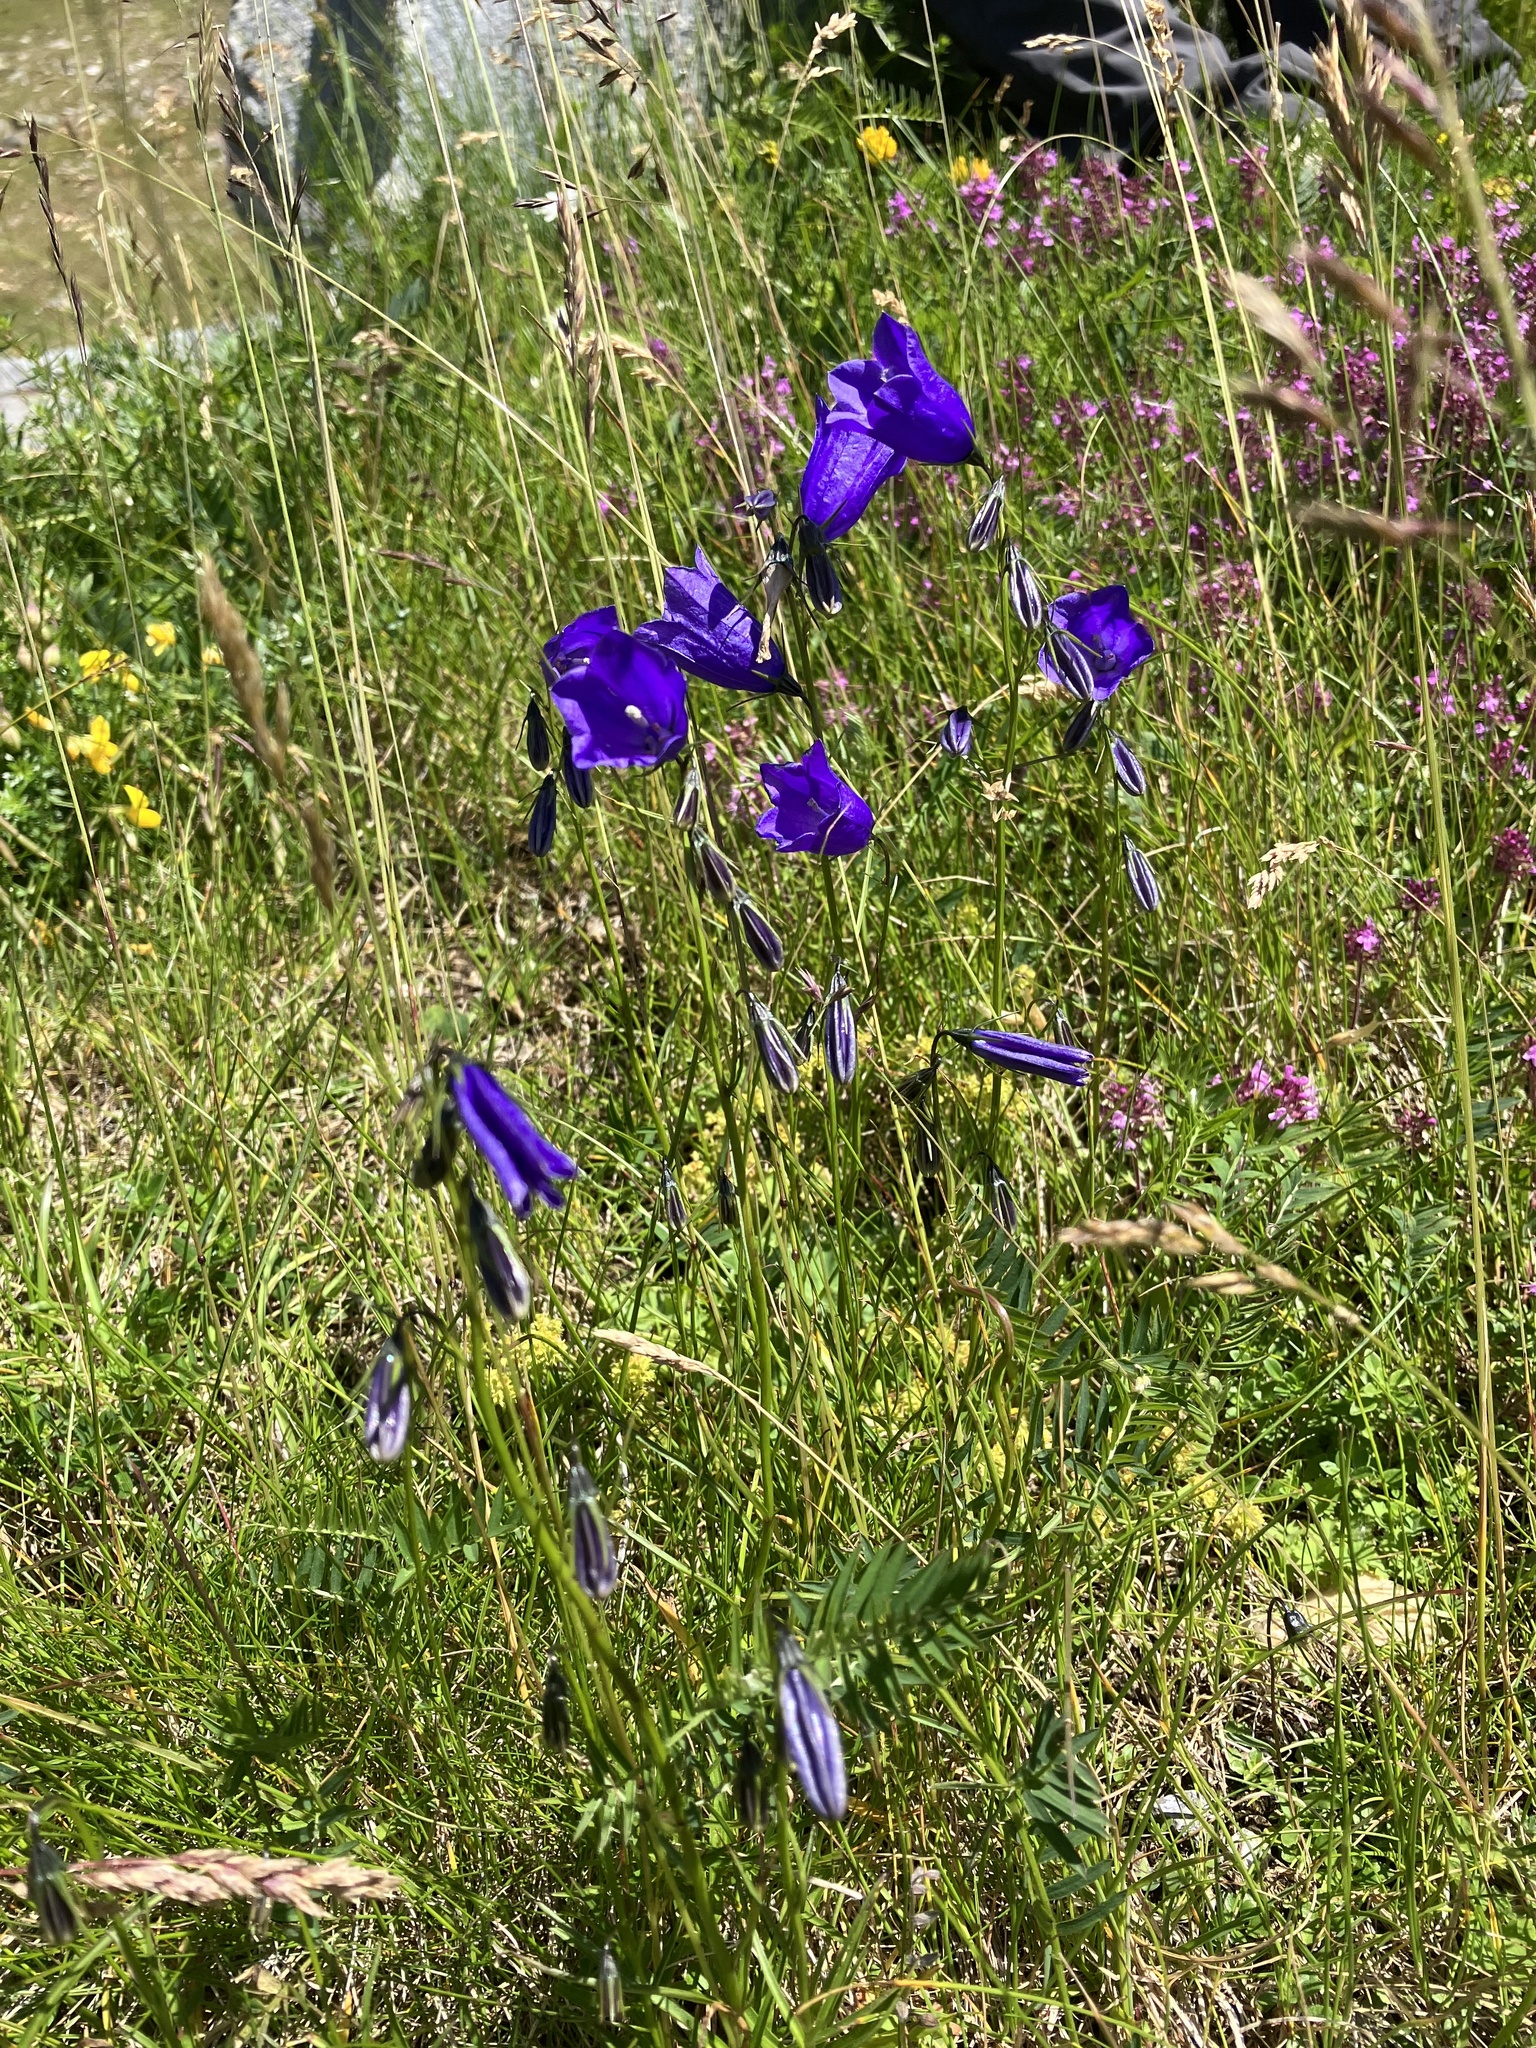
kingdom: Plantae
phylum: Tracheophyta
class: Magnoliopsida
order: Asterales
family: Campanulaceae
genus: Campanula
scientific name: Campanula scheuchzeri
